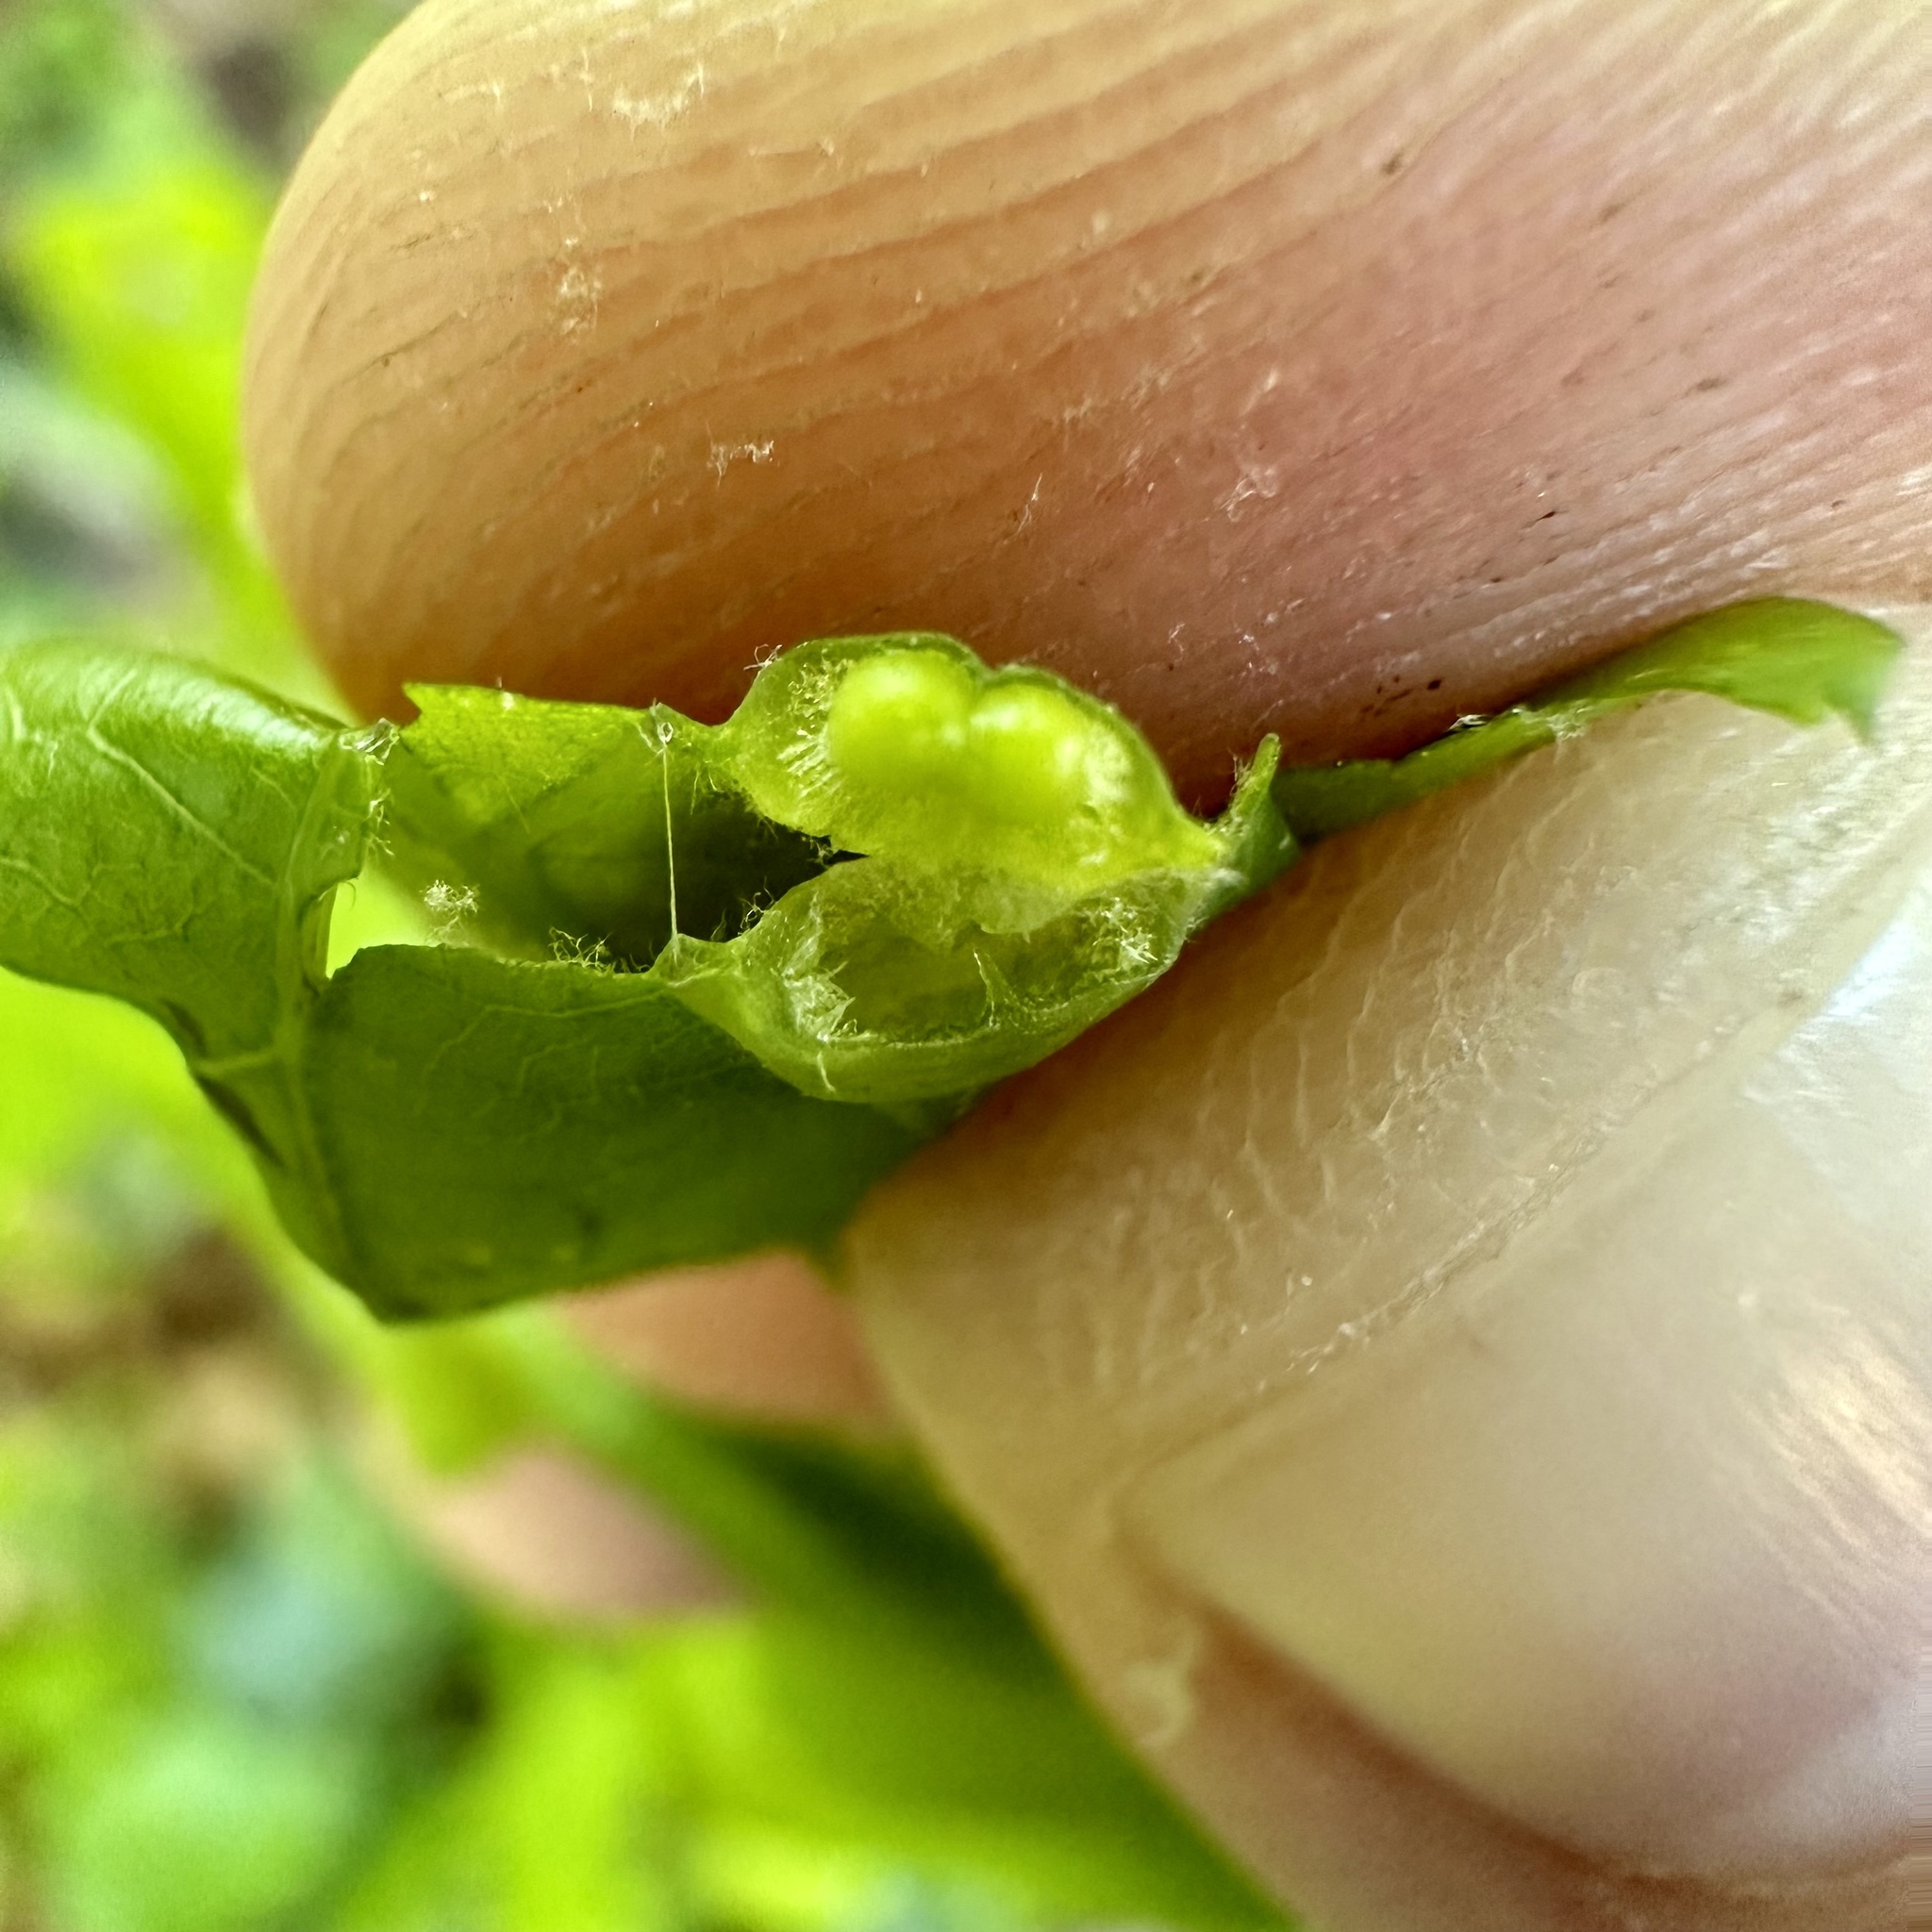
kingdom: Animalia
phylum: Arthropoda
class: Insecta
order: Hymenoptera
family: Cynipidae
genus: Callirhytis
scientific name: Callirhytis
